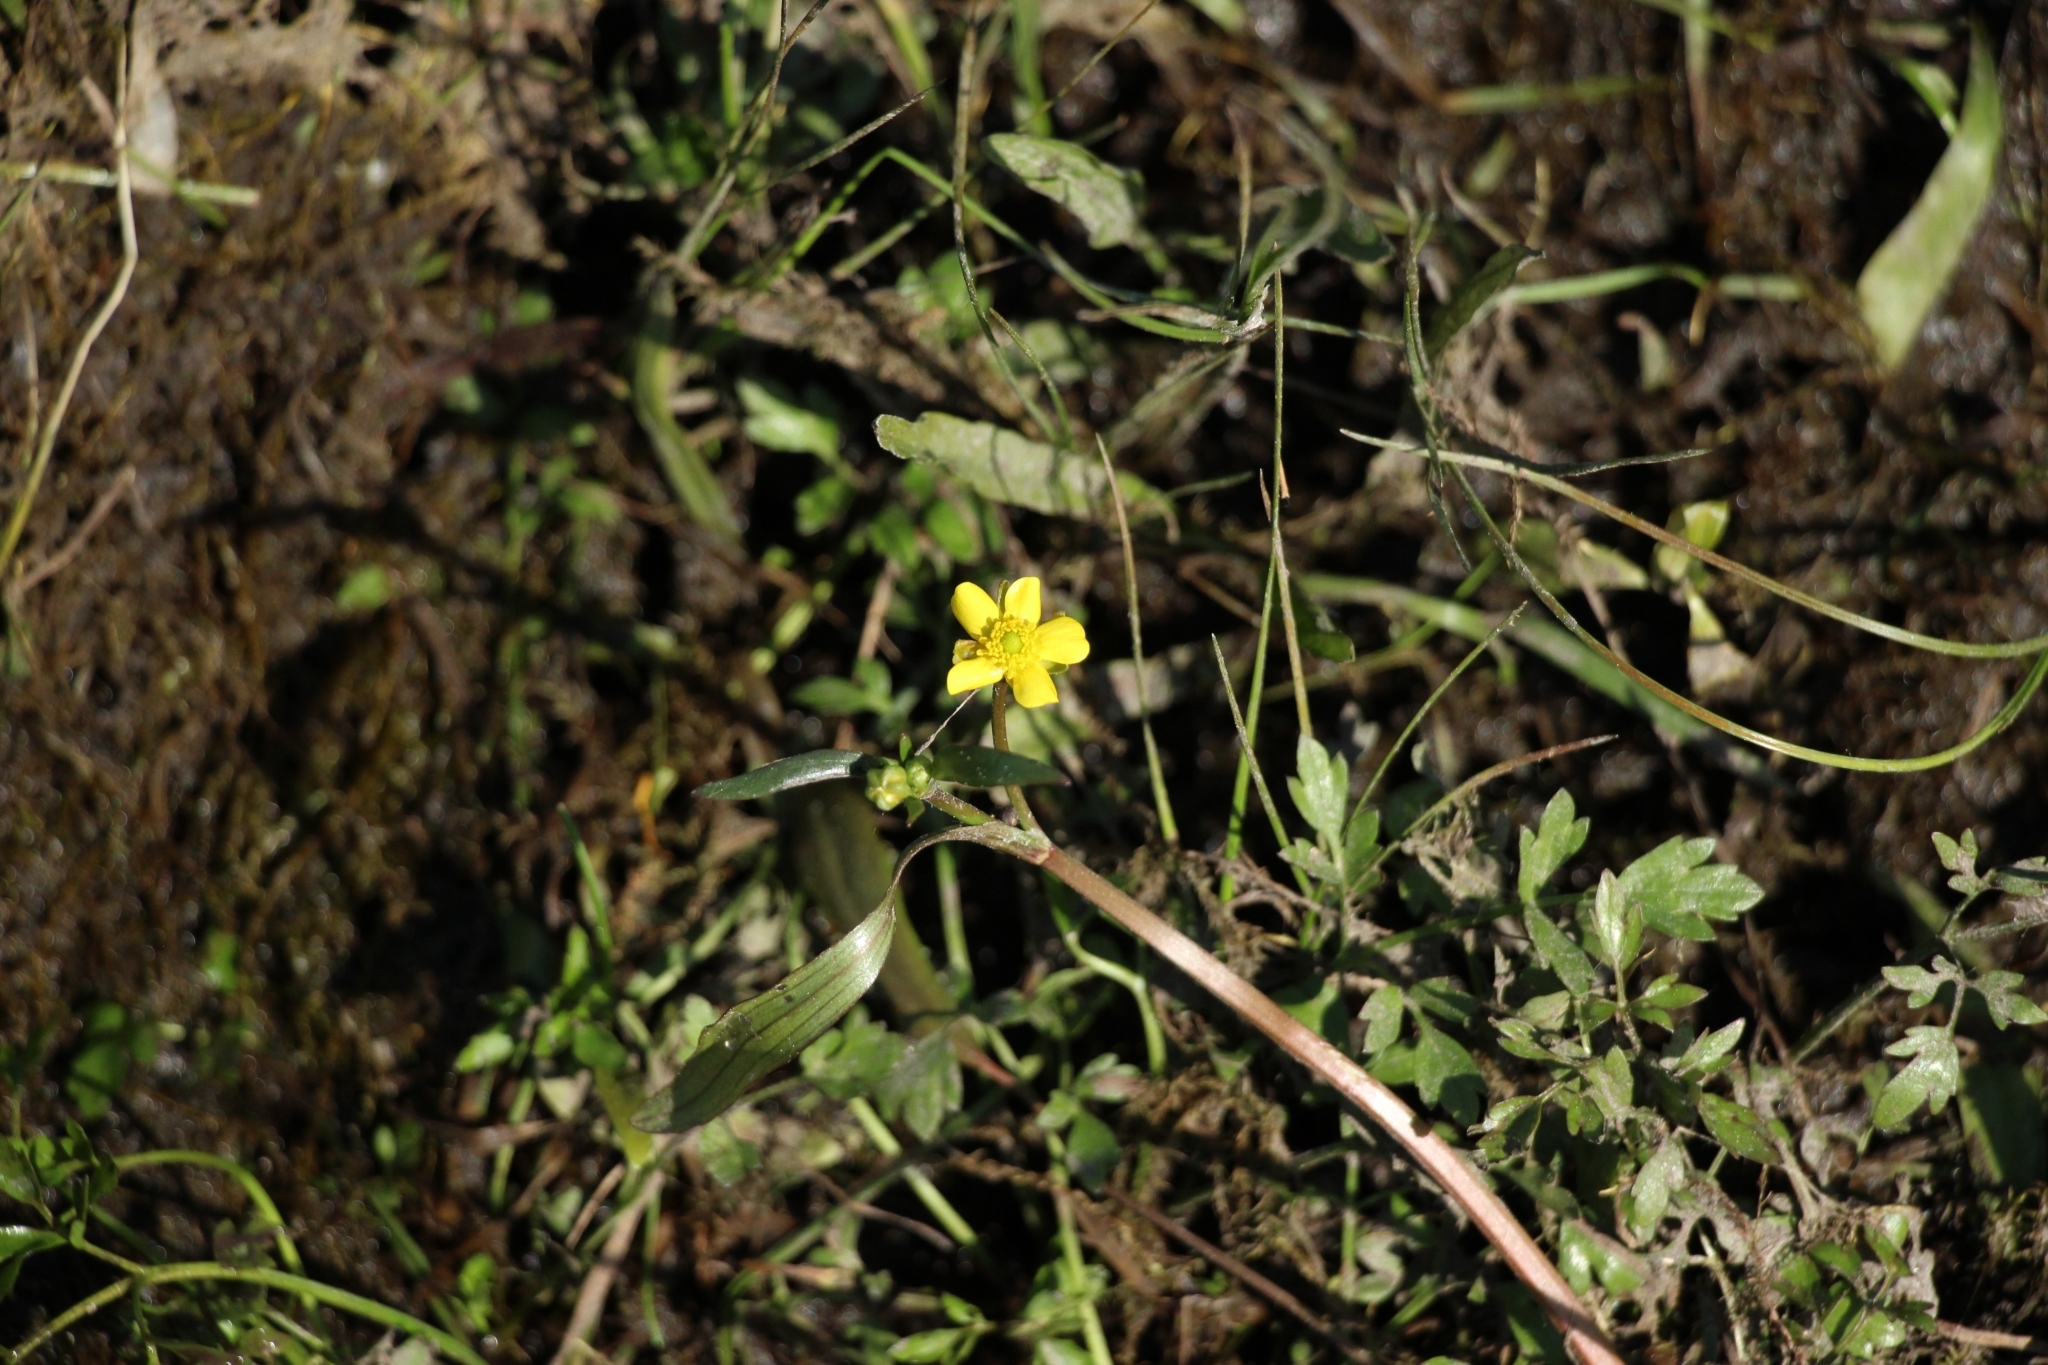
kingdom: Plantae
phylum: Tracheophyta
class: Magnoliopsida
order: Ranunculales
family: Ranunculaceae
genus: Ranunculus
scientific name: Ranunculus flammula
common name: Lesser spearwort
